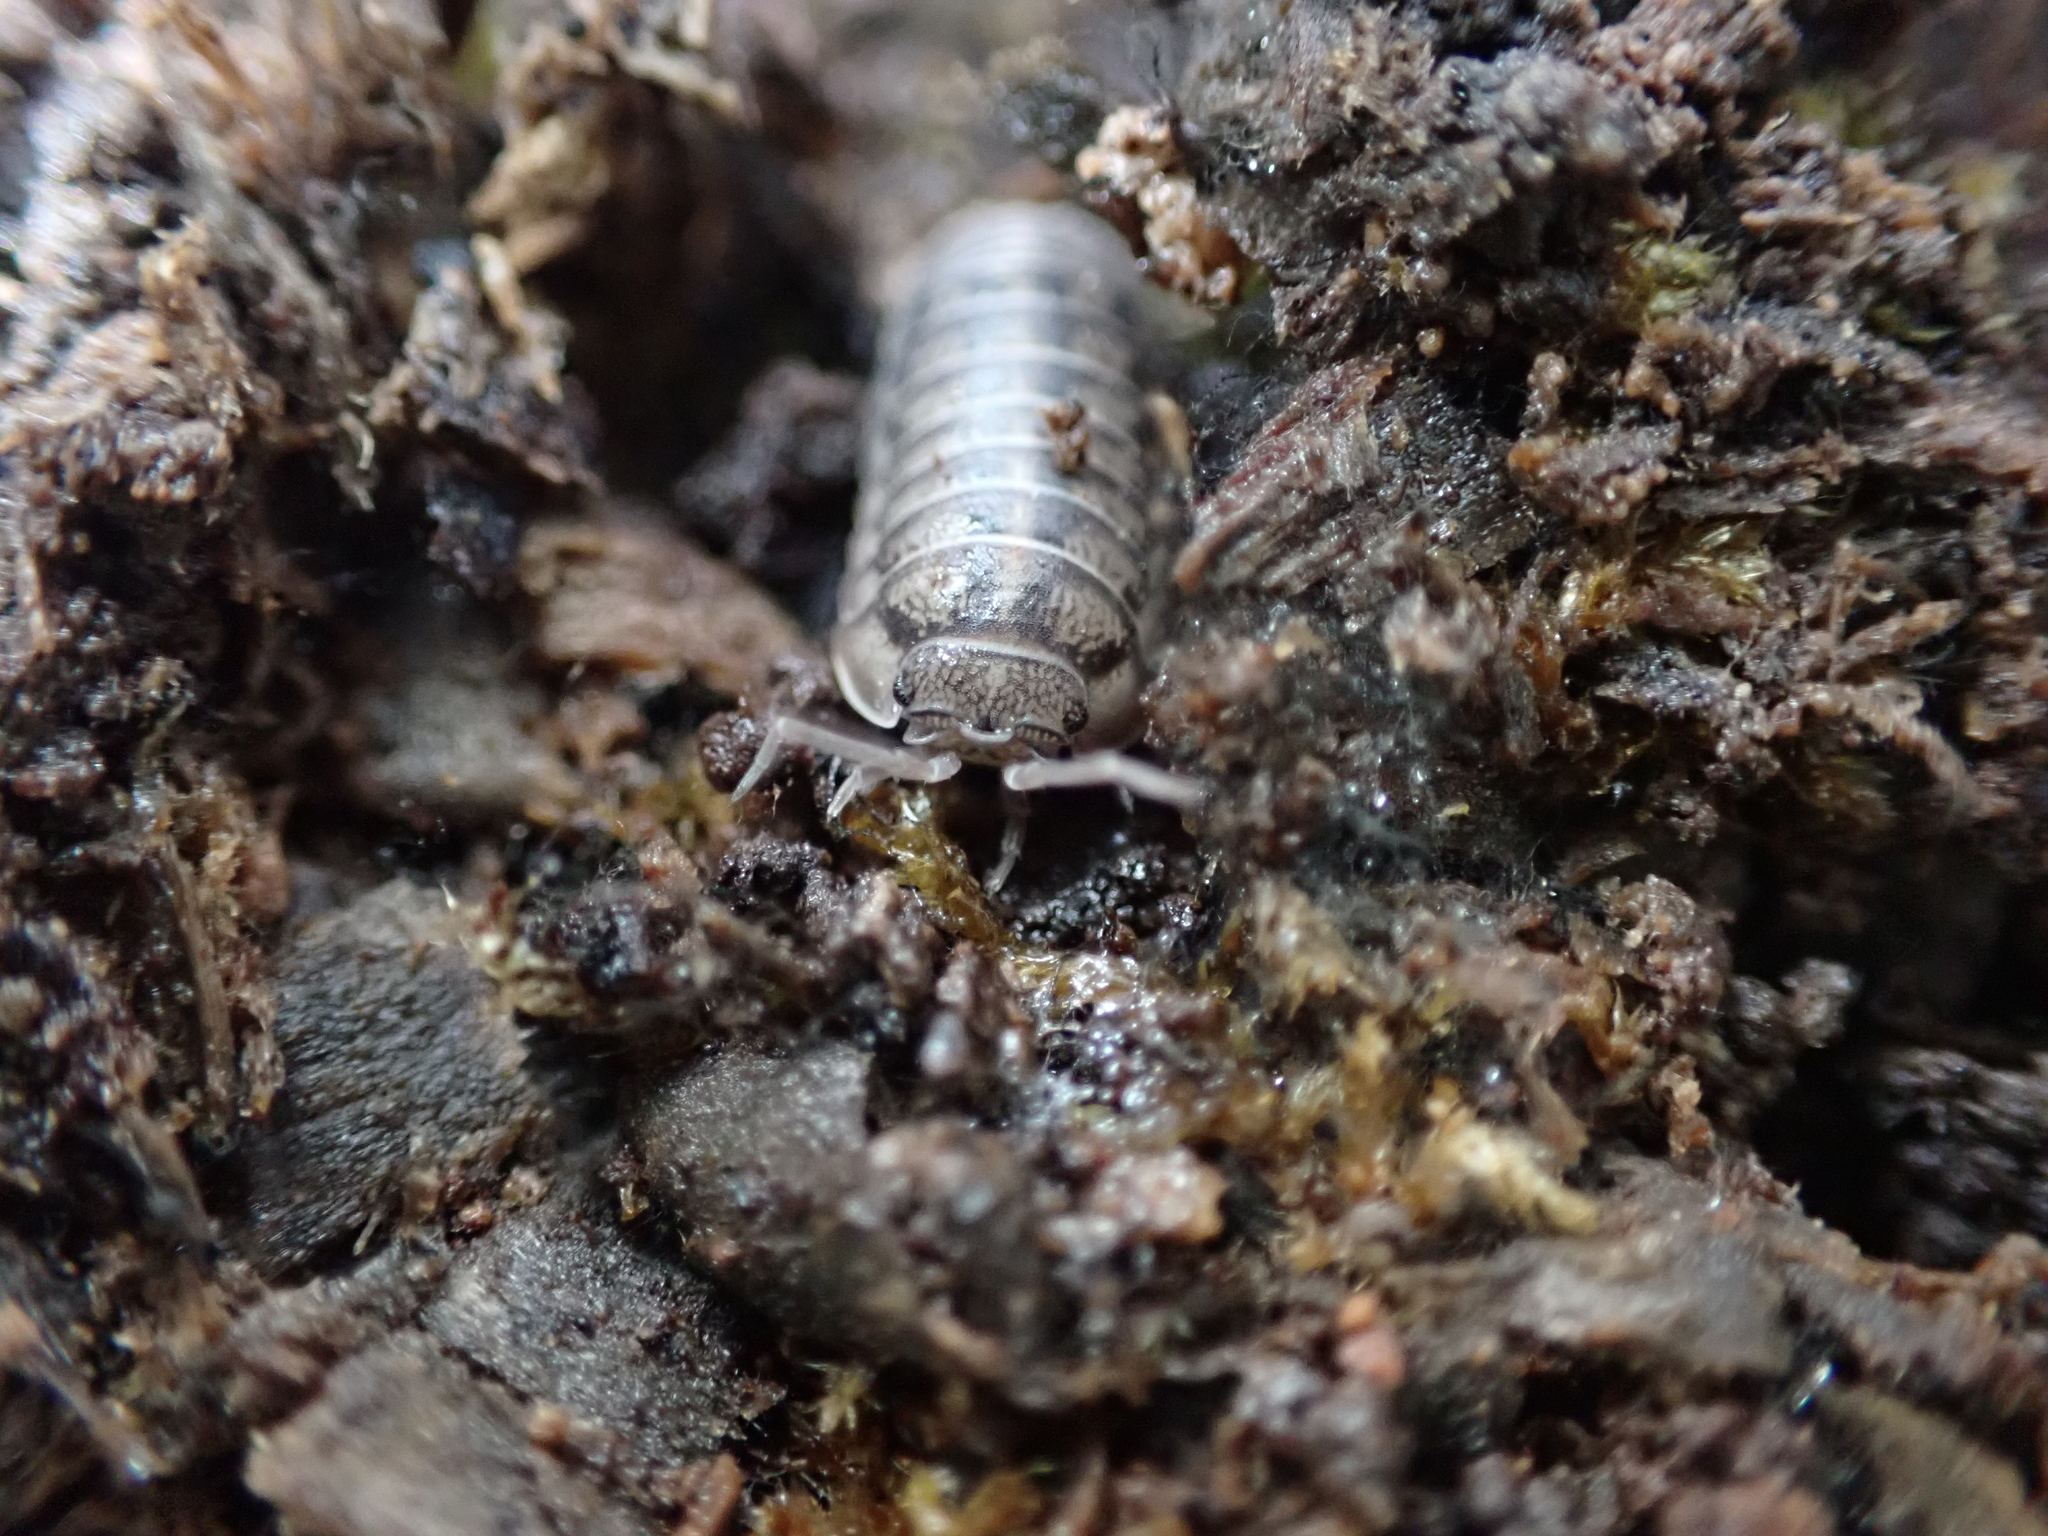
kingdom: Animalia
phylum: Arthropoda
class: Malacostraca
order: Isopoda
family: Armadillidiidae
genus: Armadillidium
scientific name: Armadillidium nasatum
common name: Isopod
